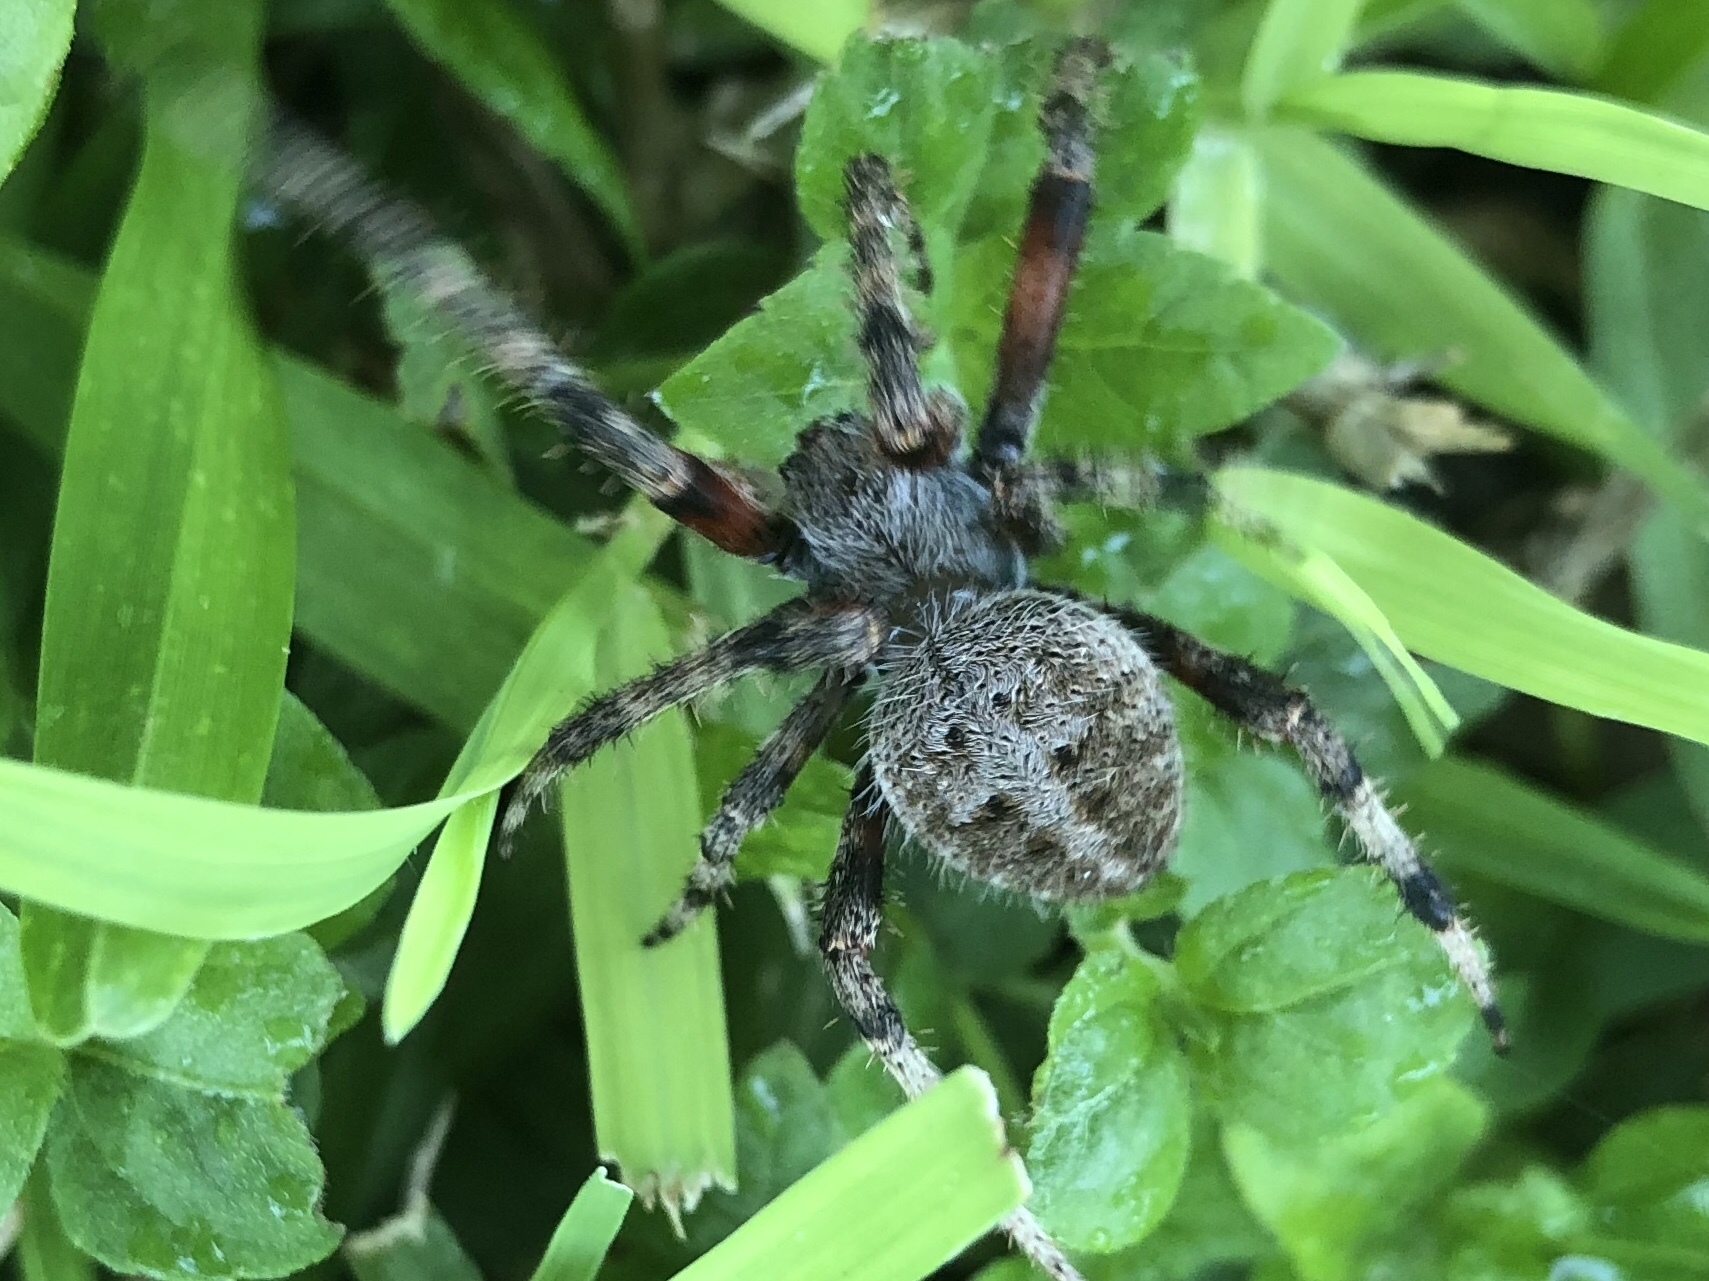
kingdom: Animalia
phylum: Arthropoda
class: Arachnida
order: Araneae
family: Araneidae
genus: Neoscona
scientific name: Neoscona crucifera
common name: Spotted orbweaver
